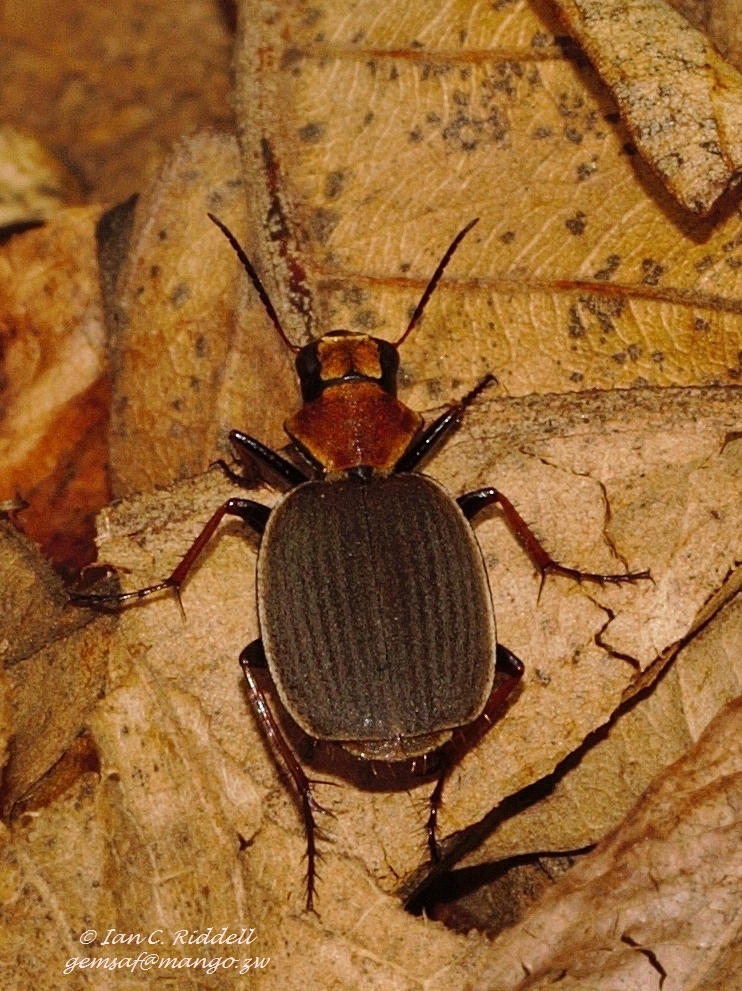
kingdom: Animalia
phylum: Arthropoda
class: Insecta
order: Coleoptera
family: Carabidae
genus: Graphipterus
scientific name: Graphipterus lateralis
